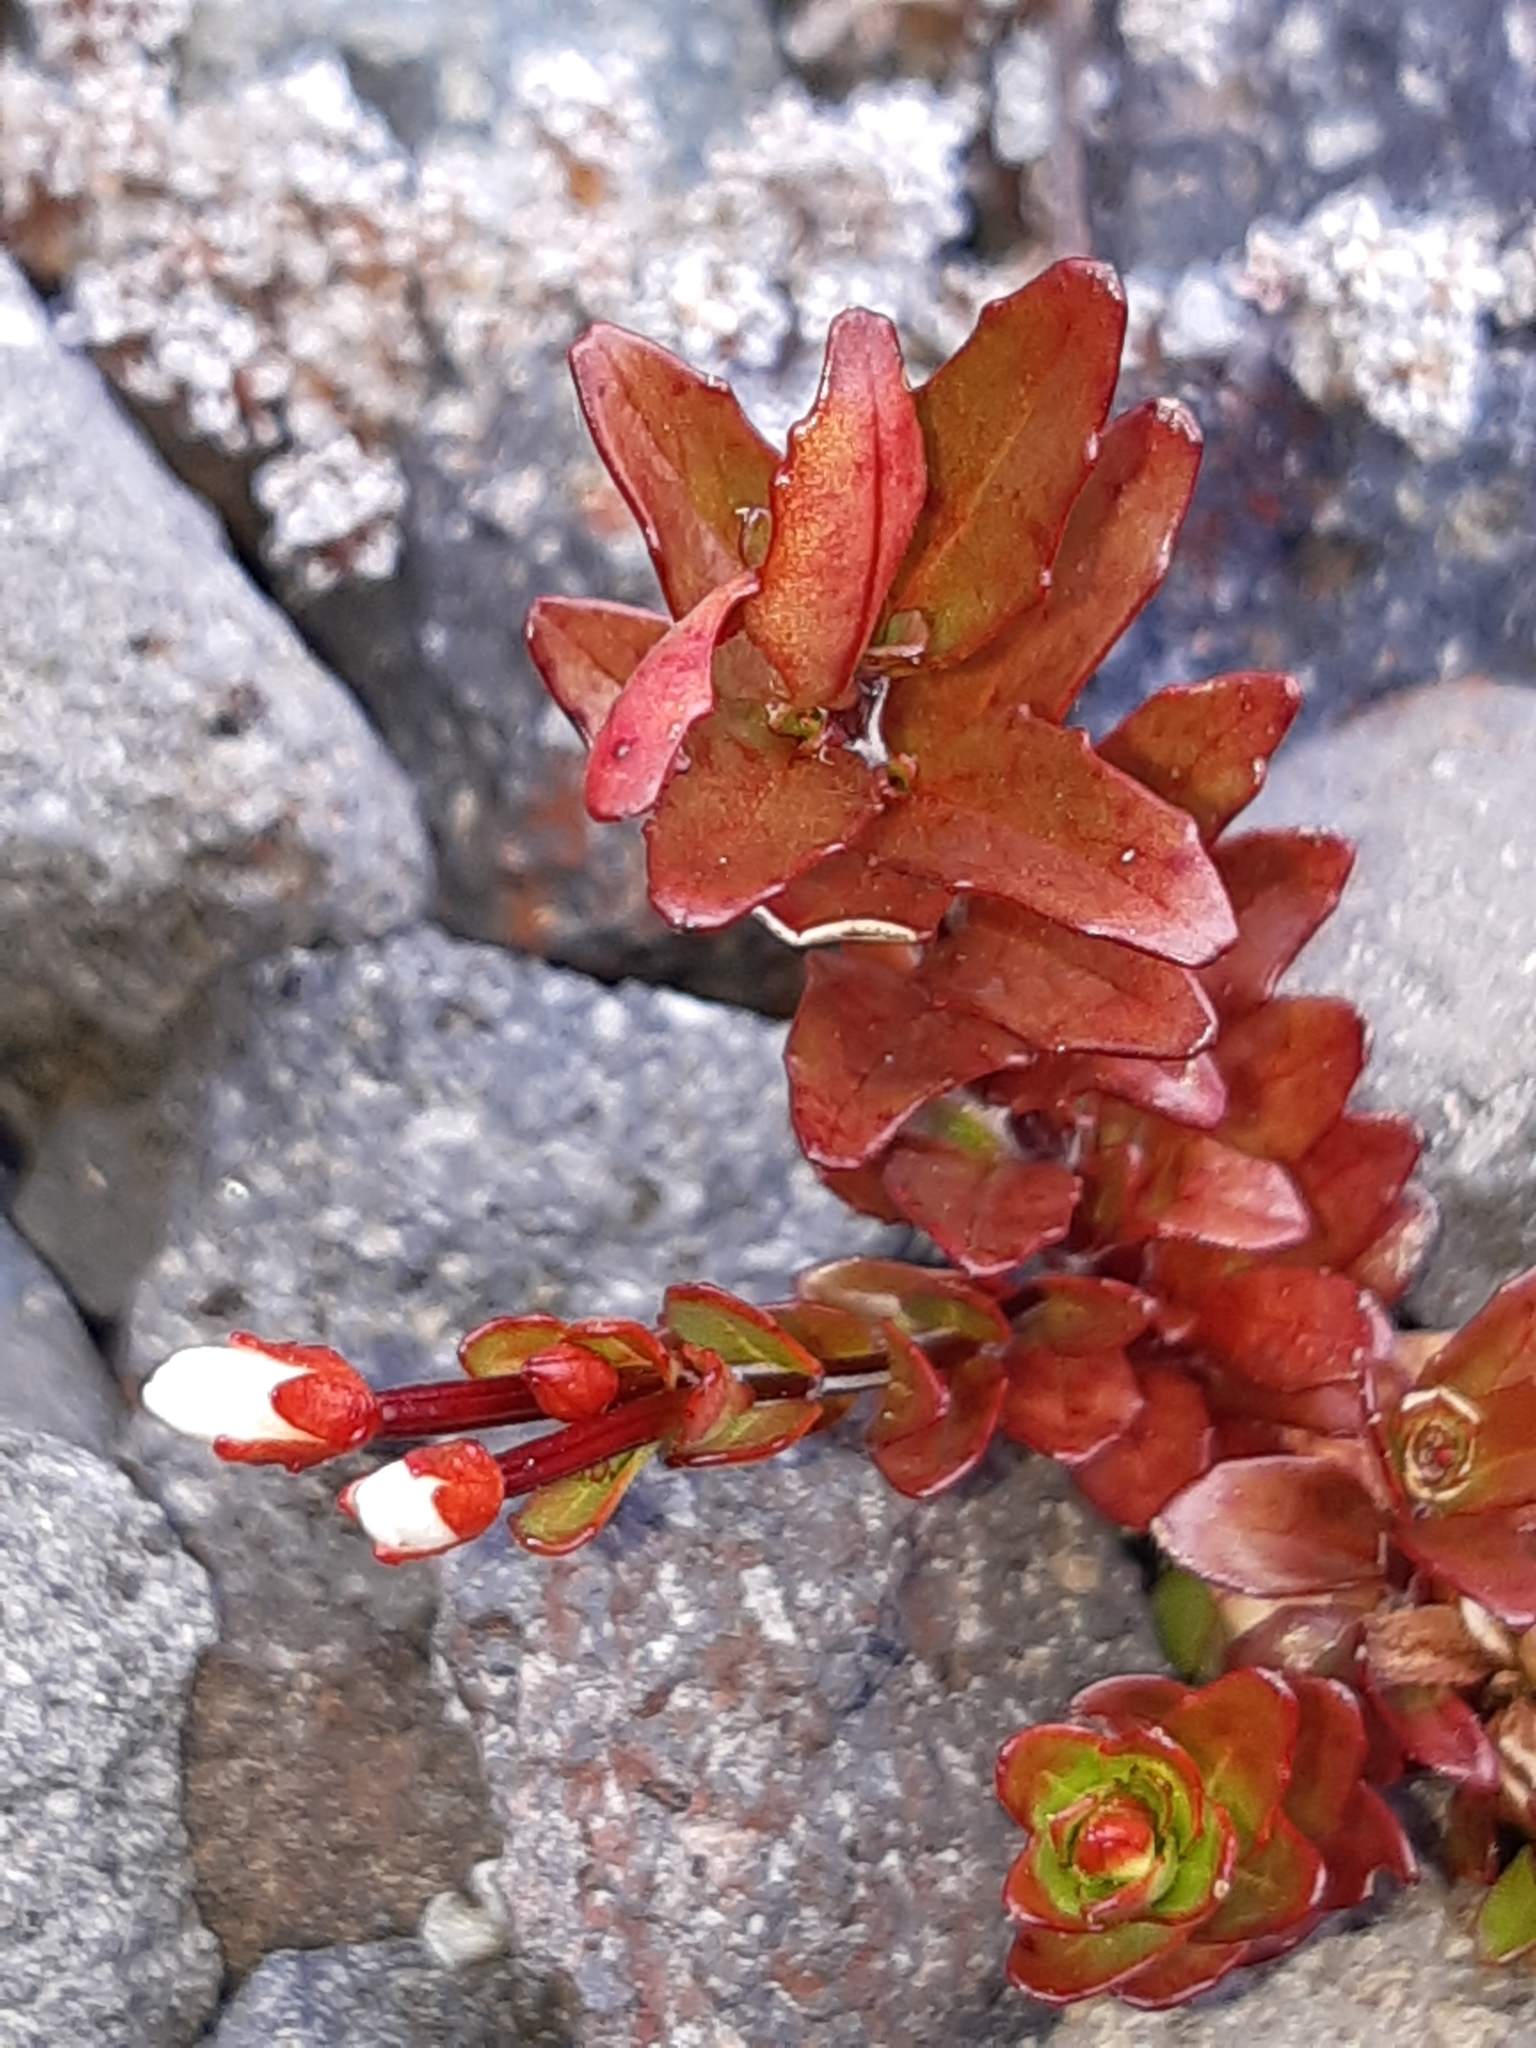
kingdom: Plantae
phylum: Tracheophyta
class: Magnoliopsida
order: Myrtales
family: Onagraceae
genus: Epilobium
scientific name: Epilobium glabellum
